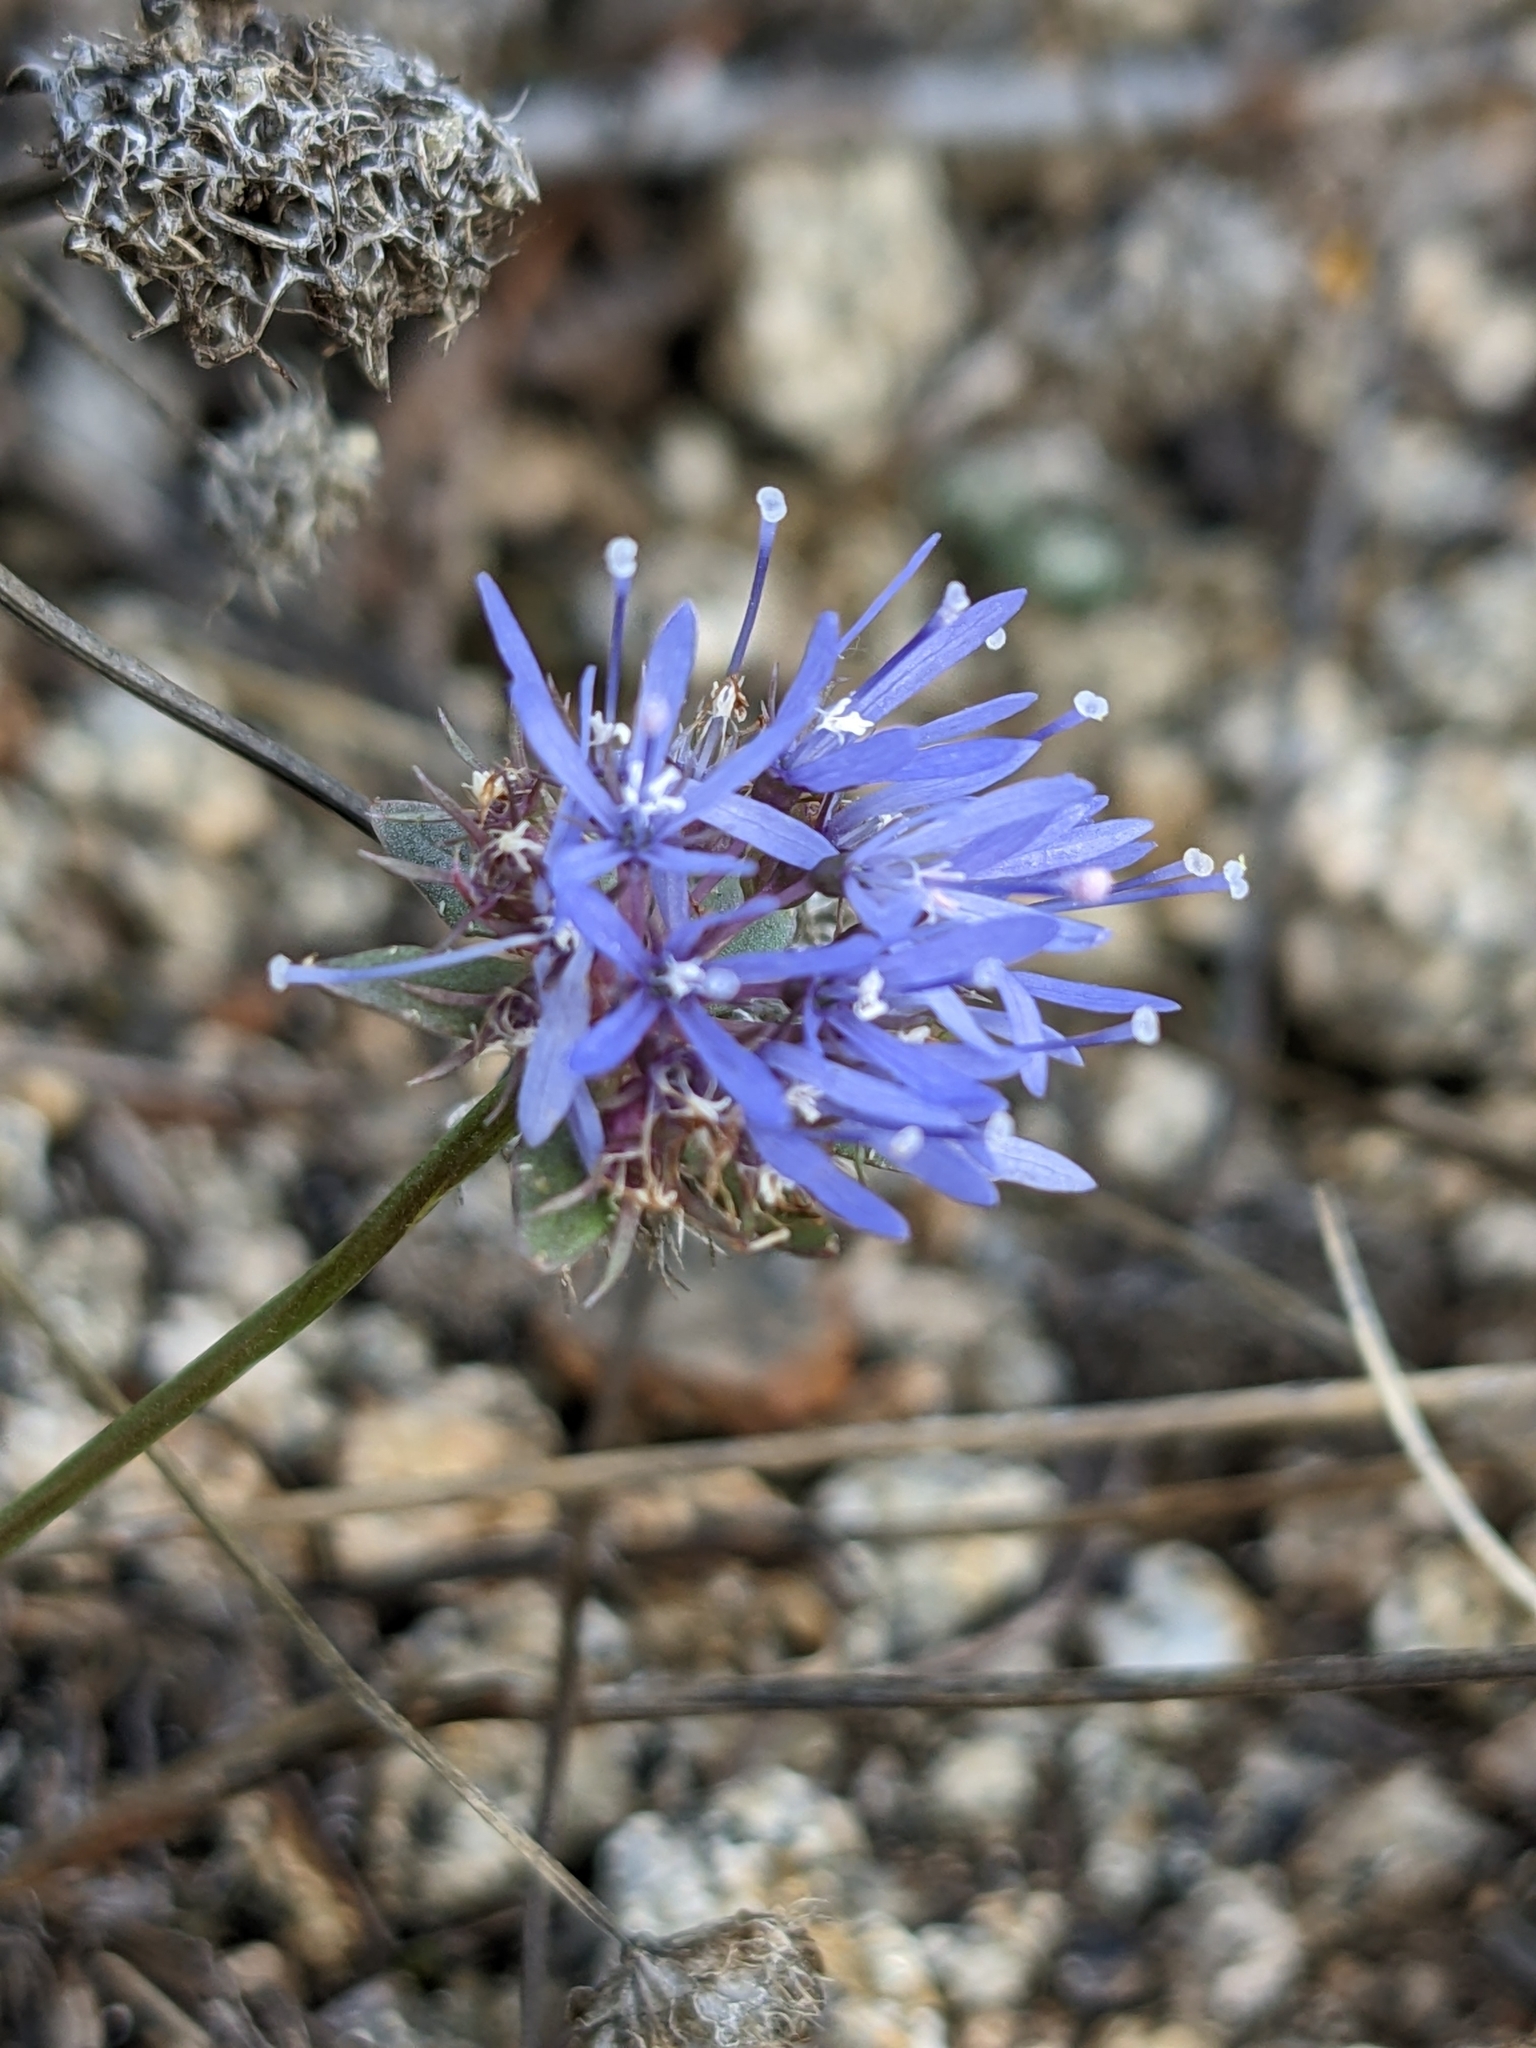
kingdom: Plantae
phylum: Tracheophyta
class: Magnoliopsida
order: Asterales
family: Campanulaceae
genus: Jasione
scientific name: Jasione montana
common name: Sheep's-bit
